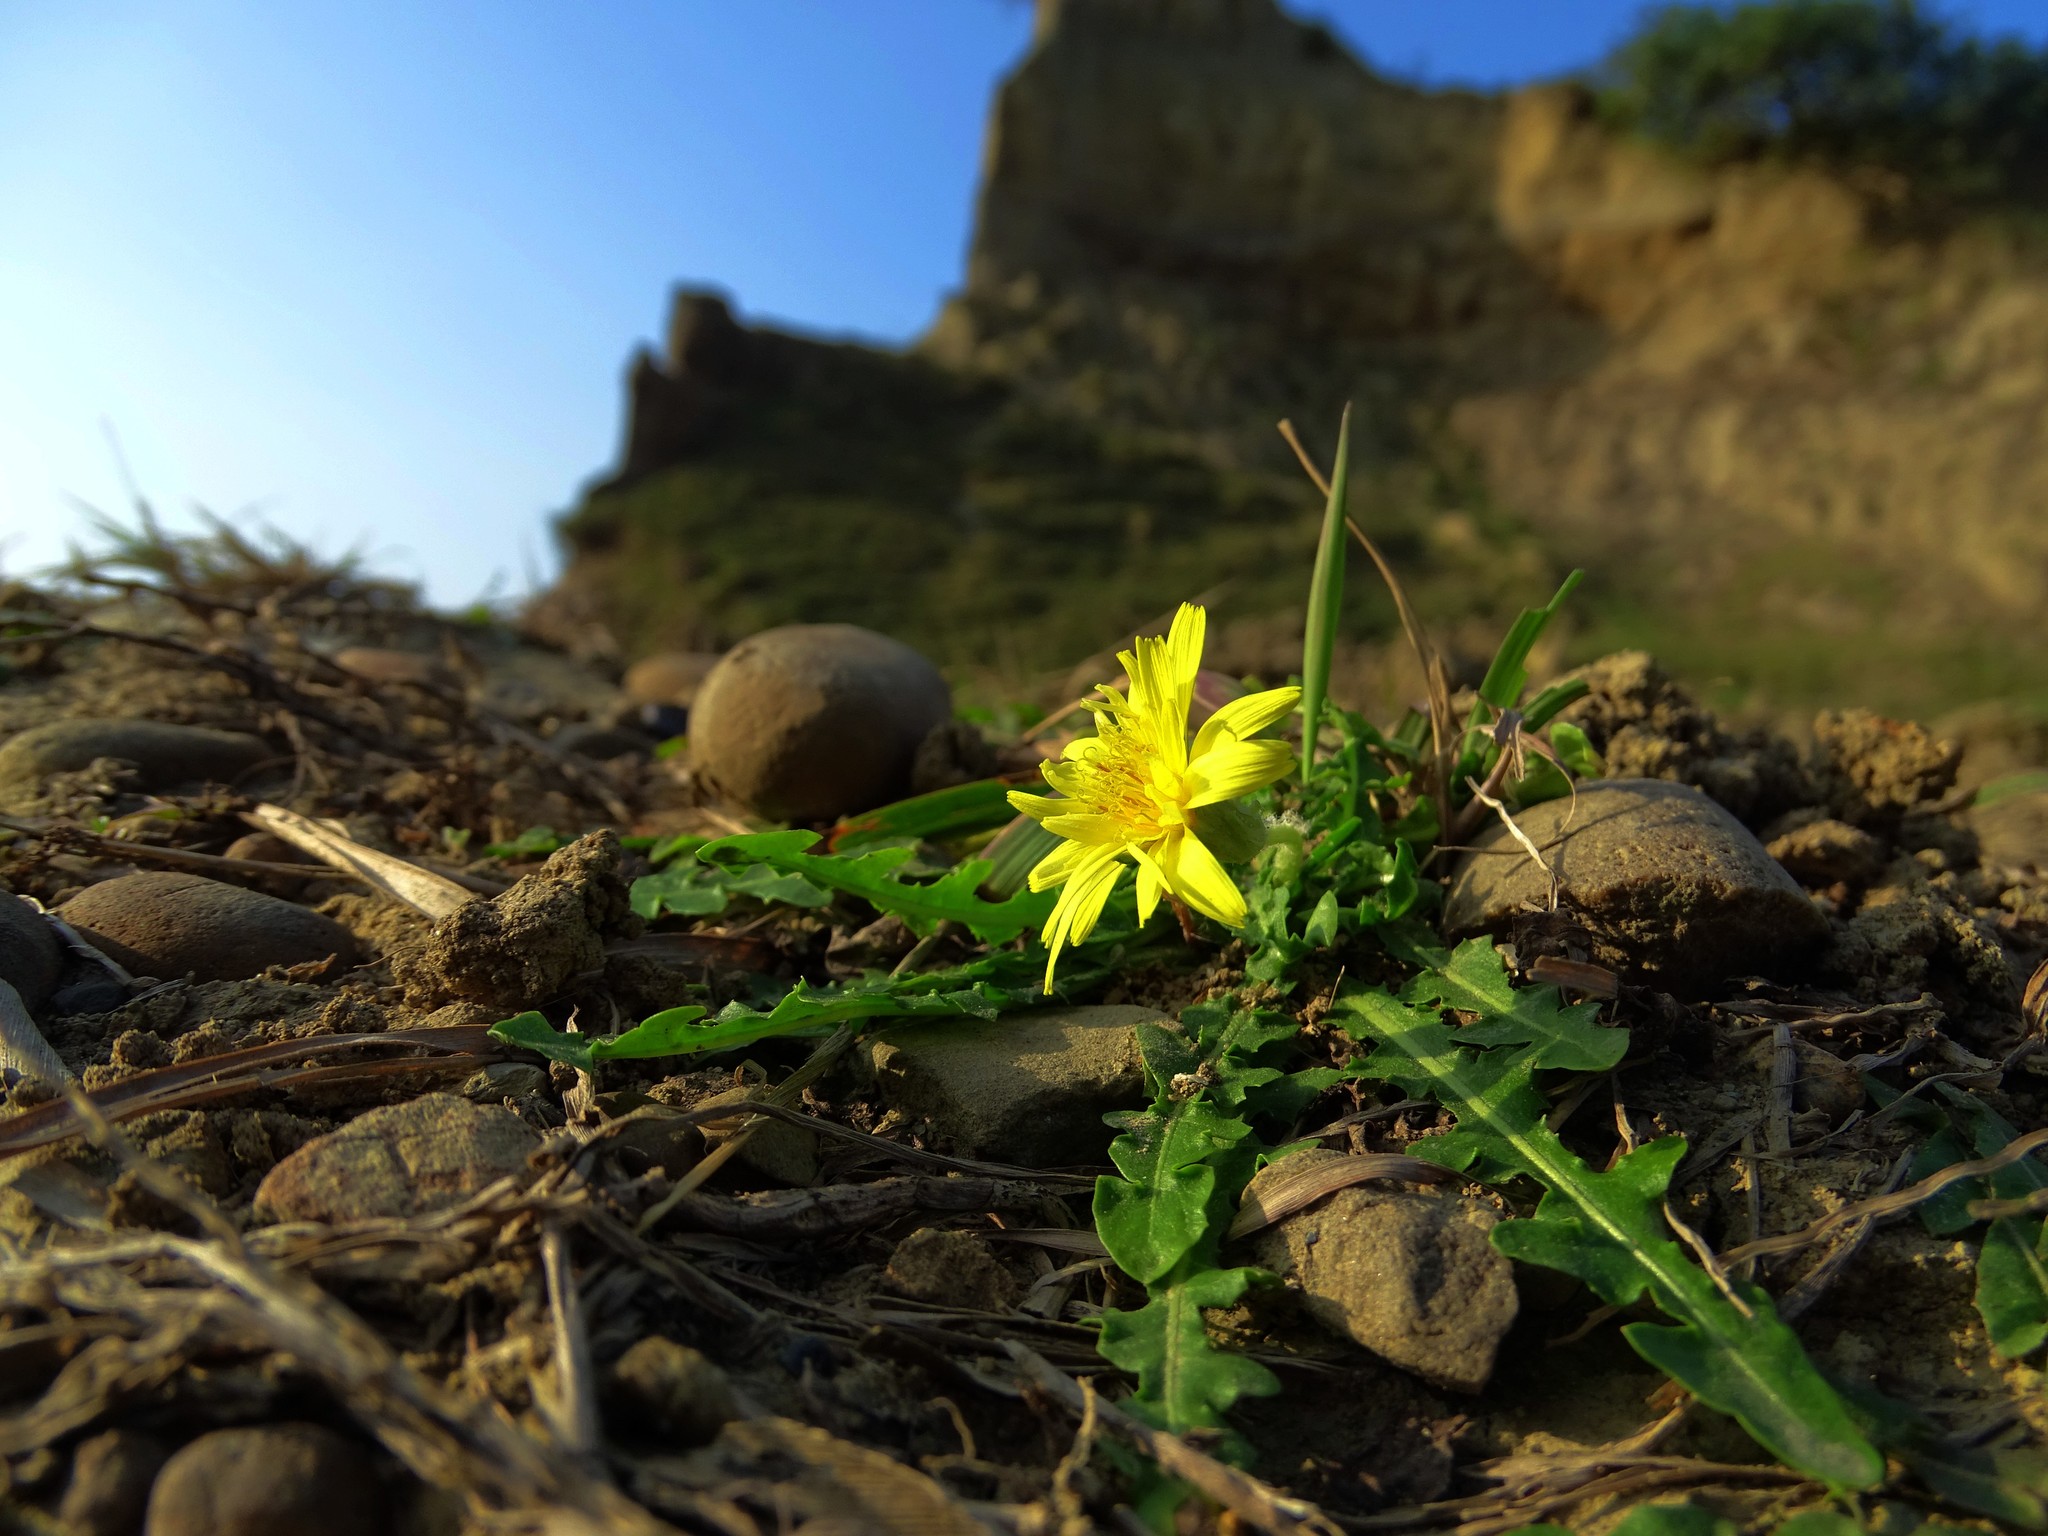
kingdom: Plantae
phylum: Tracheophyta
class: Magnoliopsida
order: Asterales
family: Asteraceae
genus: Taraxacum
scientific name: Taraxacum formosanum
